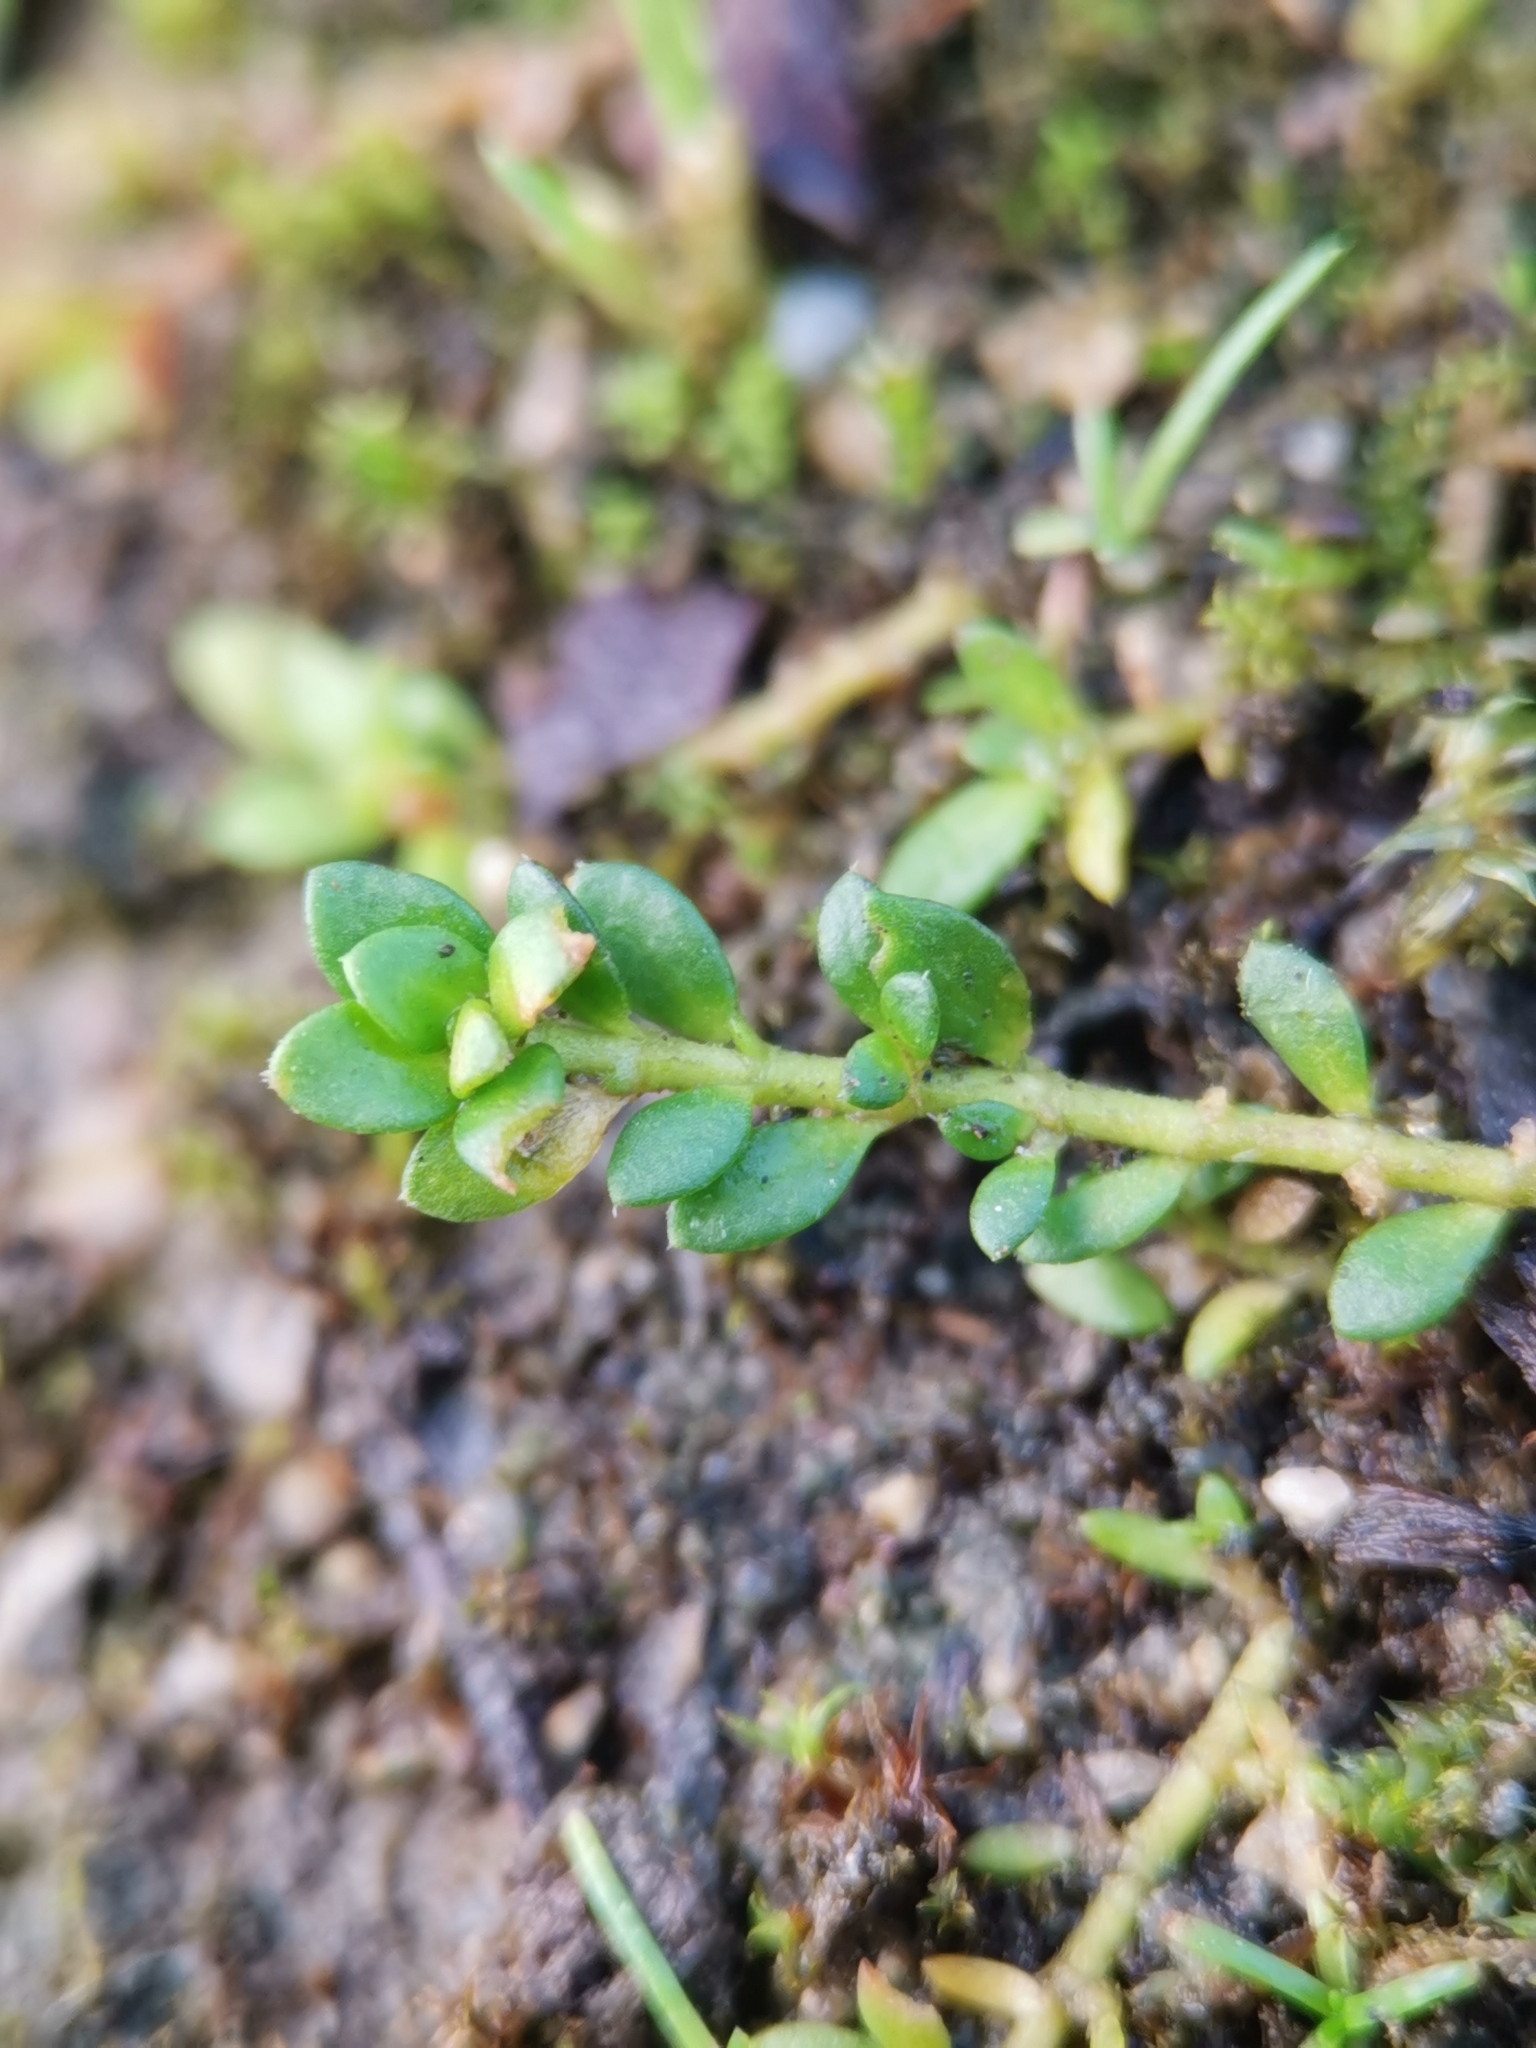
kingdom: Plantae
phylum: Tracheophyta
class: Magnoliopsida
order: Caryophyllales
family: Caryophyllaceae
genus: Herniaria
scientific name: Herniaria glabra
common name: Smooth rupturewort
